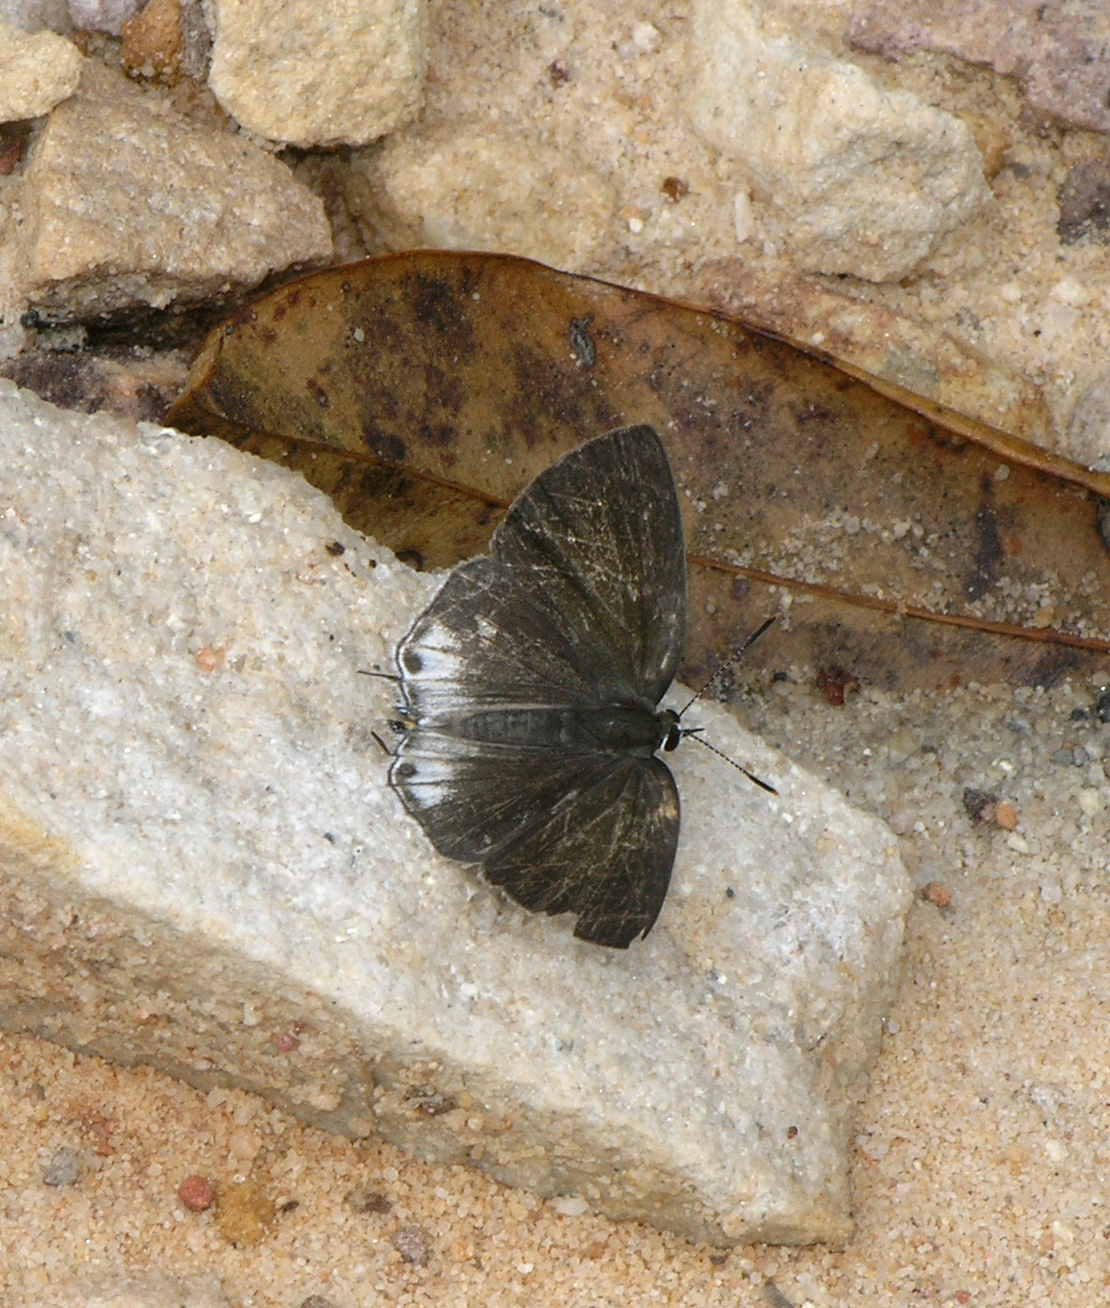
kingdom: Animalia
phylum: Arthropoda
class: Insecta
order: Lepidoptera
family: Lycaenidae
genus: Sinthusa
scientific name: Sinthusa nasaka
